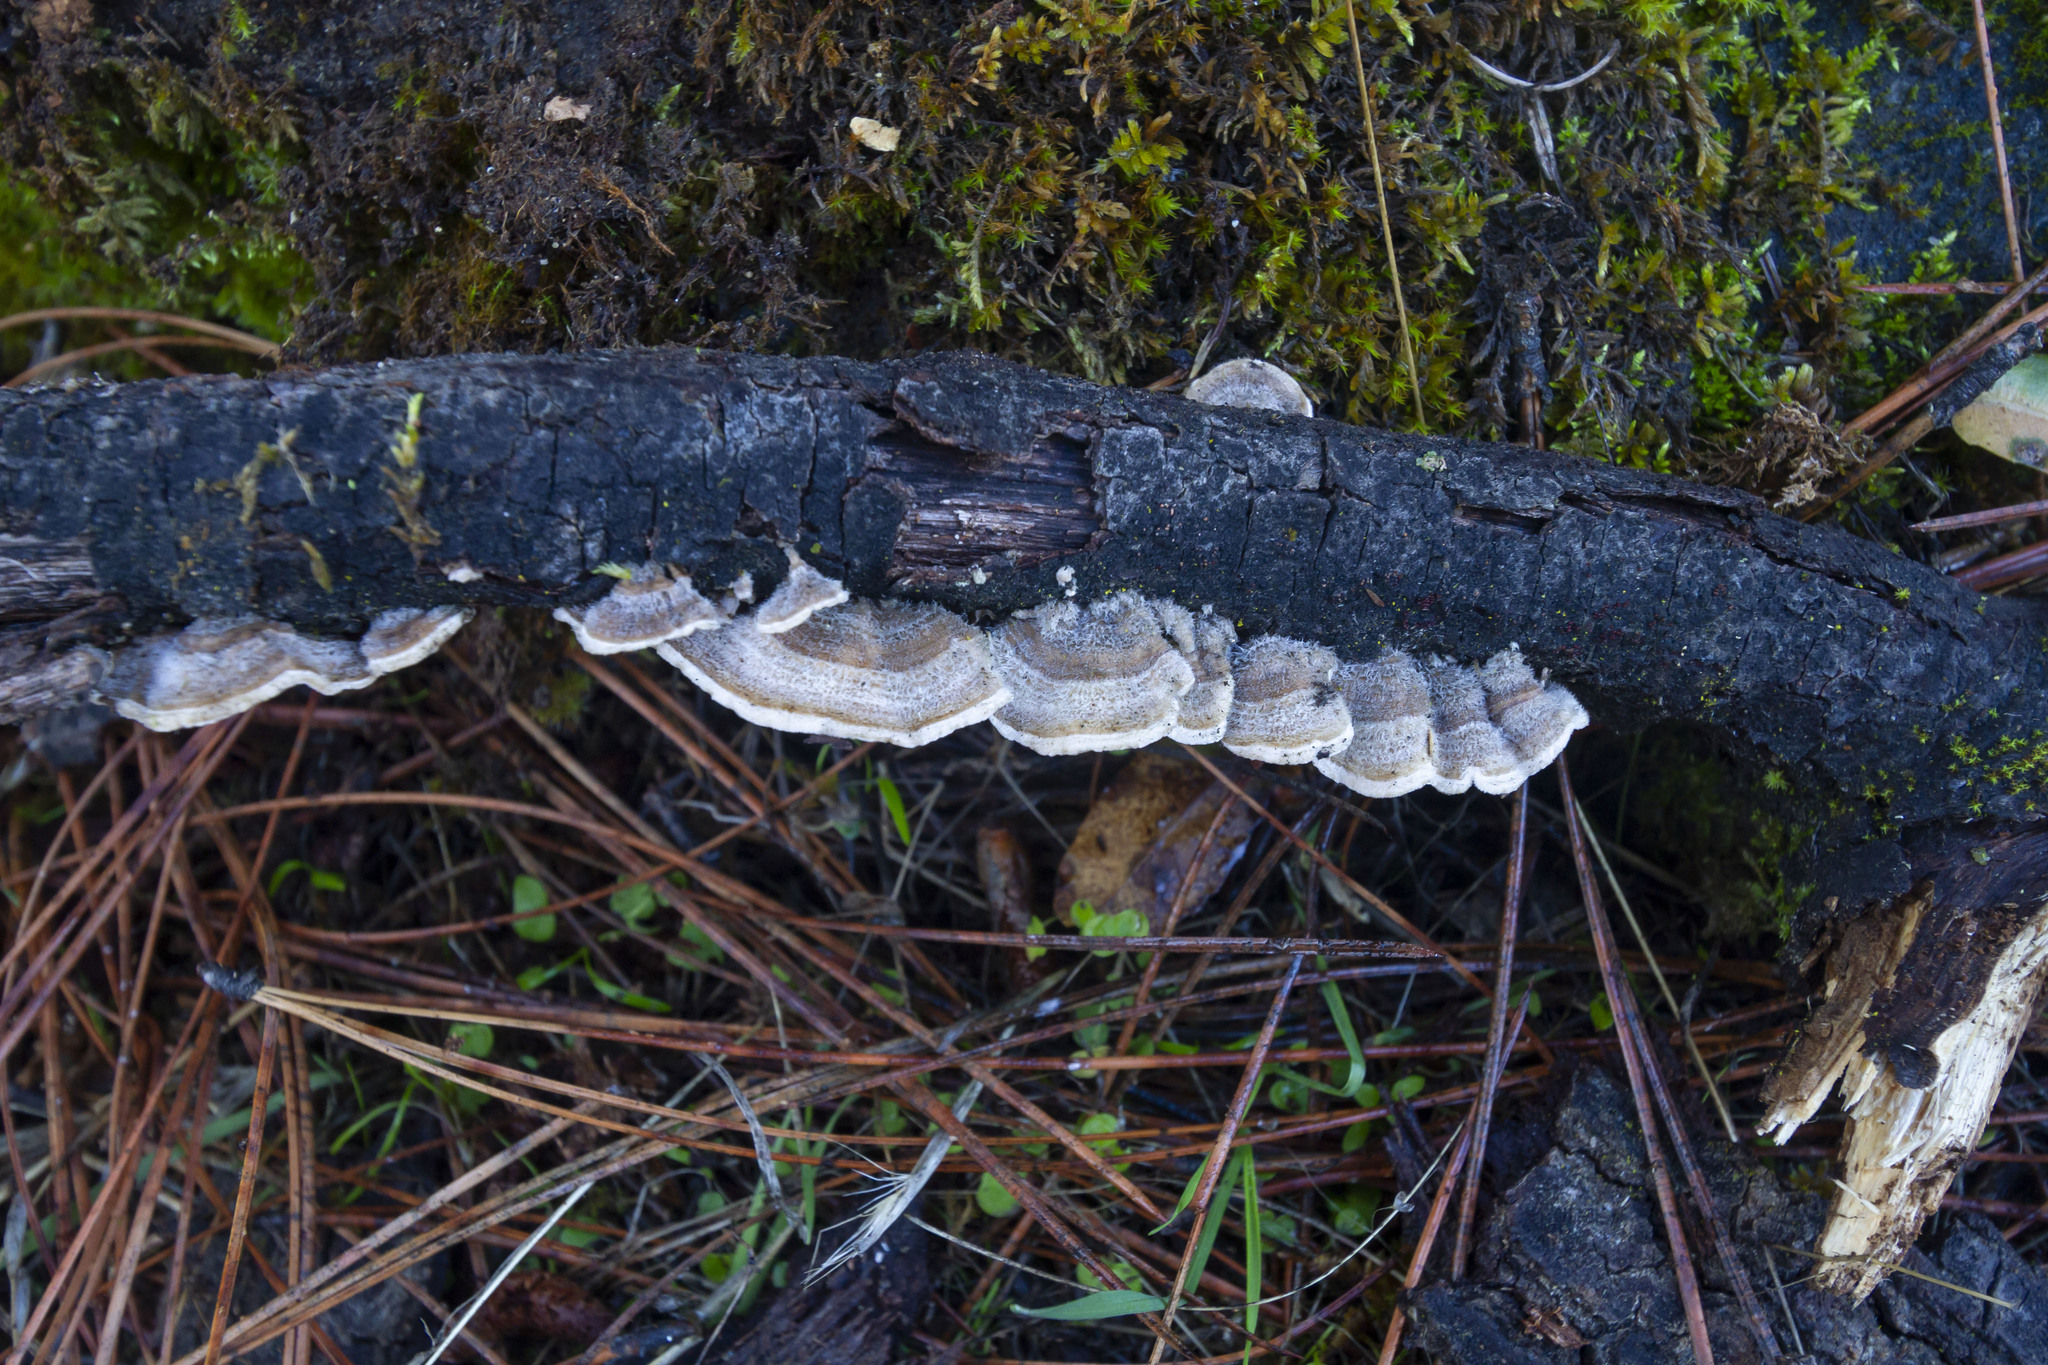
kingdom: Fungi
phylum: Basidiomycota
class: Agaricomycetes
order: Russulales
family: Stereaceae
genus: Stereum
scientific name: Stereum hirsutum
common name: Hairy curtain crust
